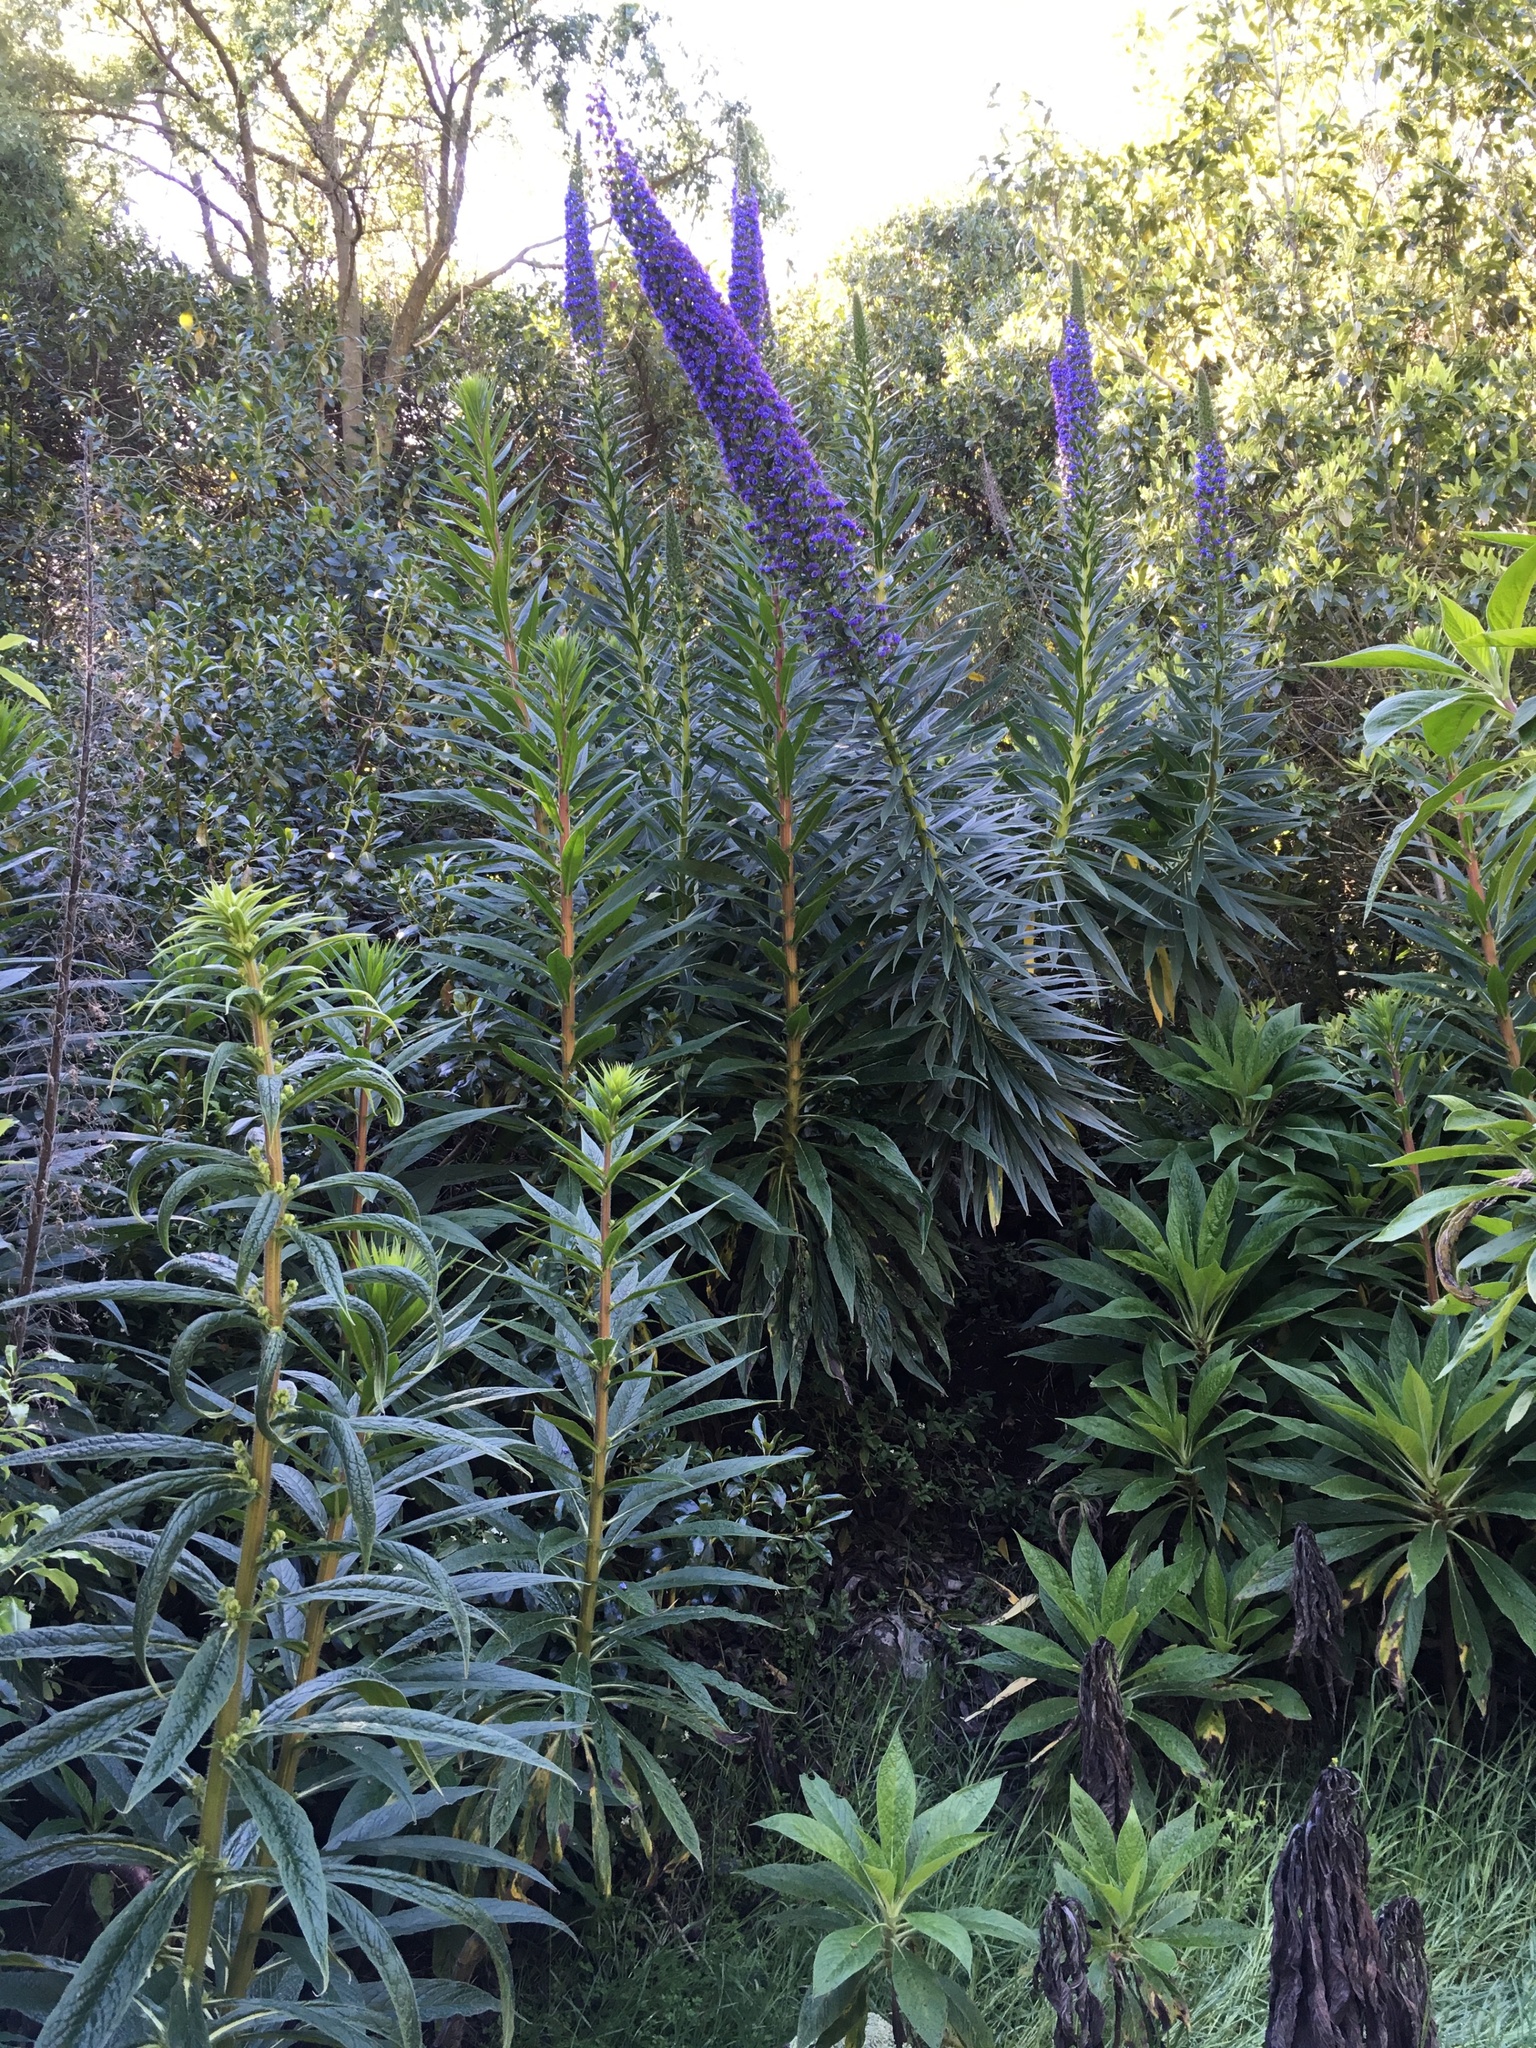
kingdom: Plantae
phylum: Tracheophyta
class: Magnoliopsida
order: Boraginales
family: Boraginaceae
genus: Echium
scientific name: Echium pininana
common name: Giant viper's-bugloss
